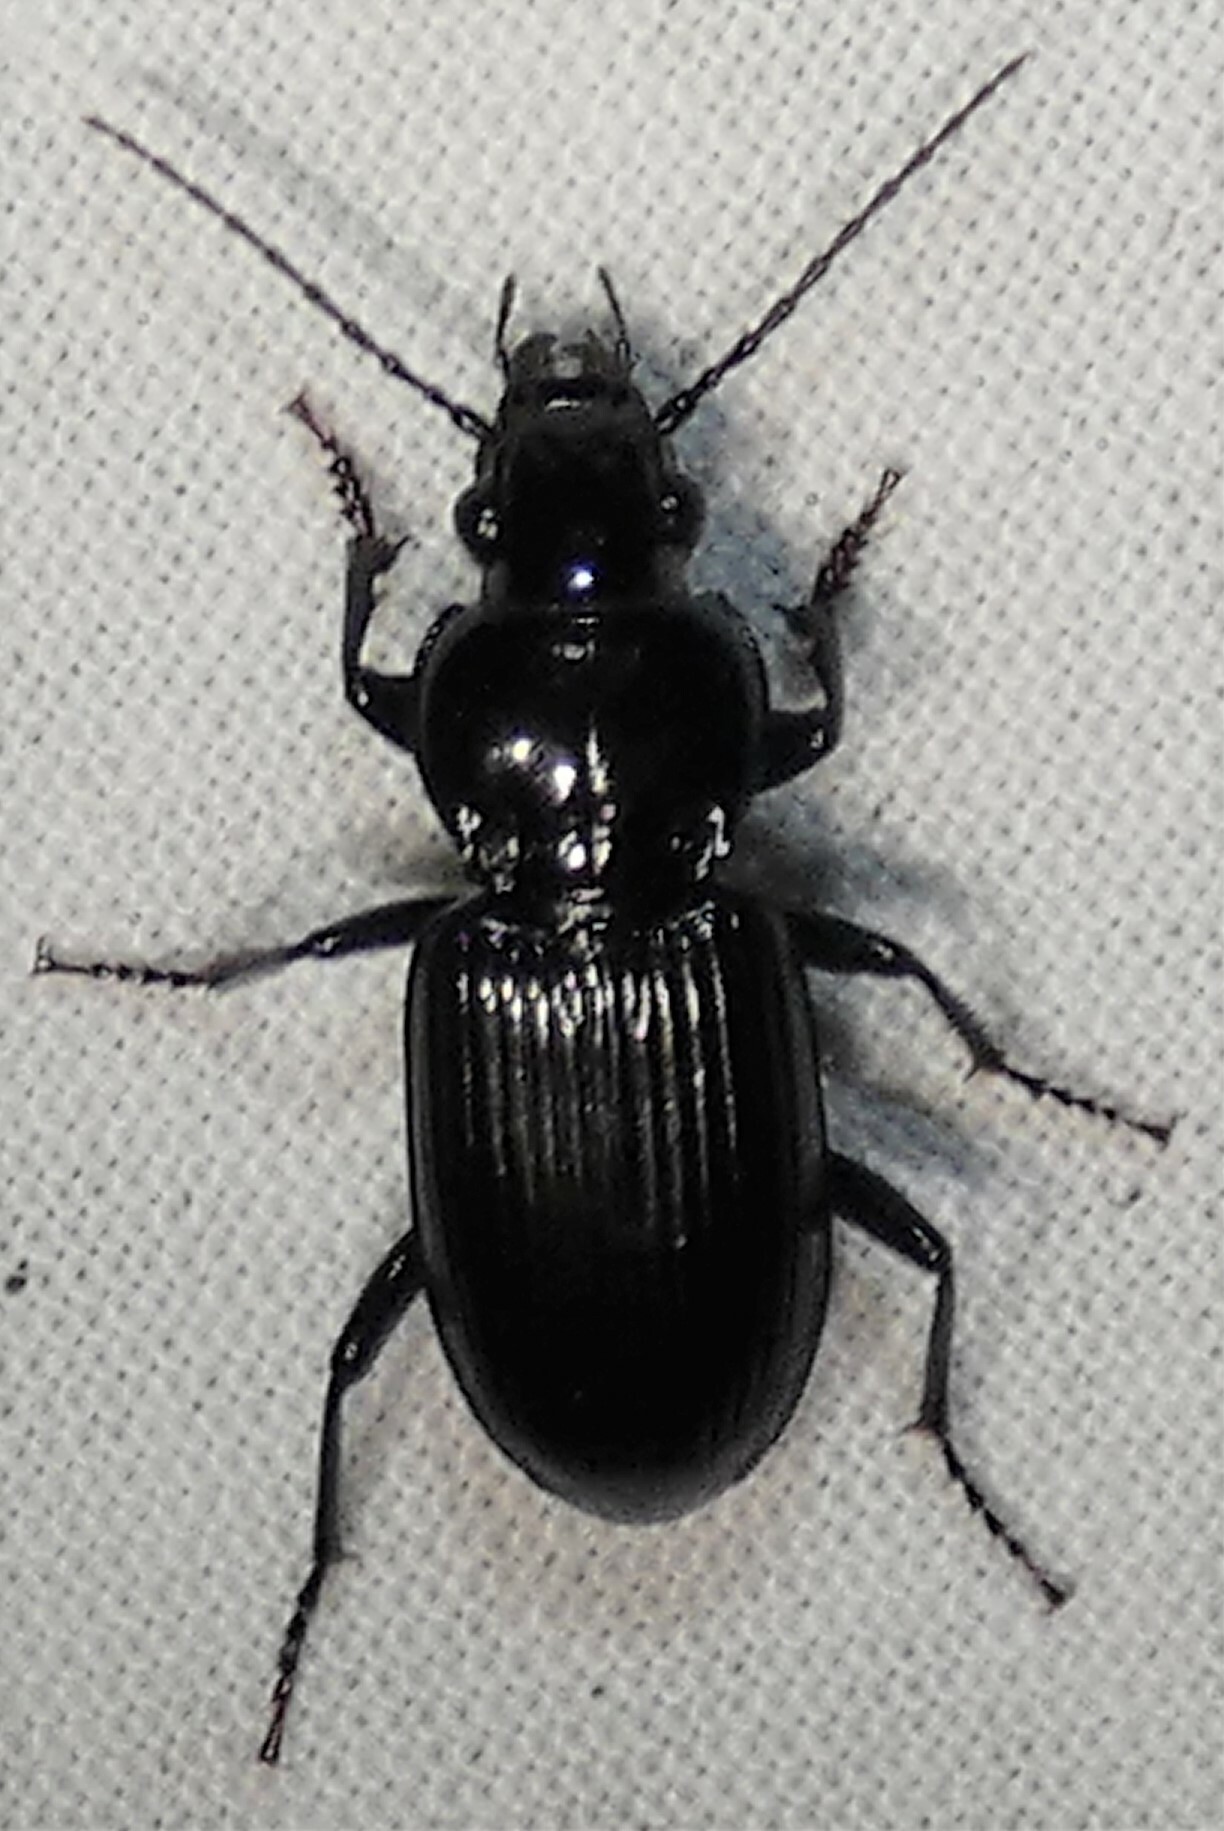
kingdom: Animalia
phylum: Arthropoda
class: Insecta
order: Coleoptera
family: Carabidae
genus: Pterostichus
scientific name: Pterostichus ebeninus
